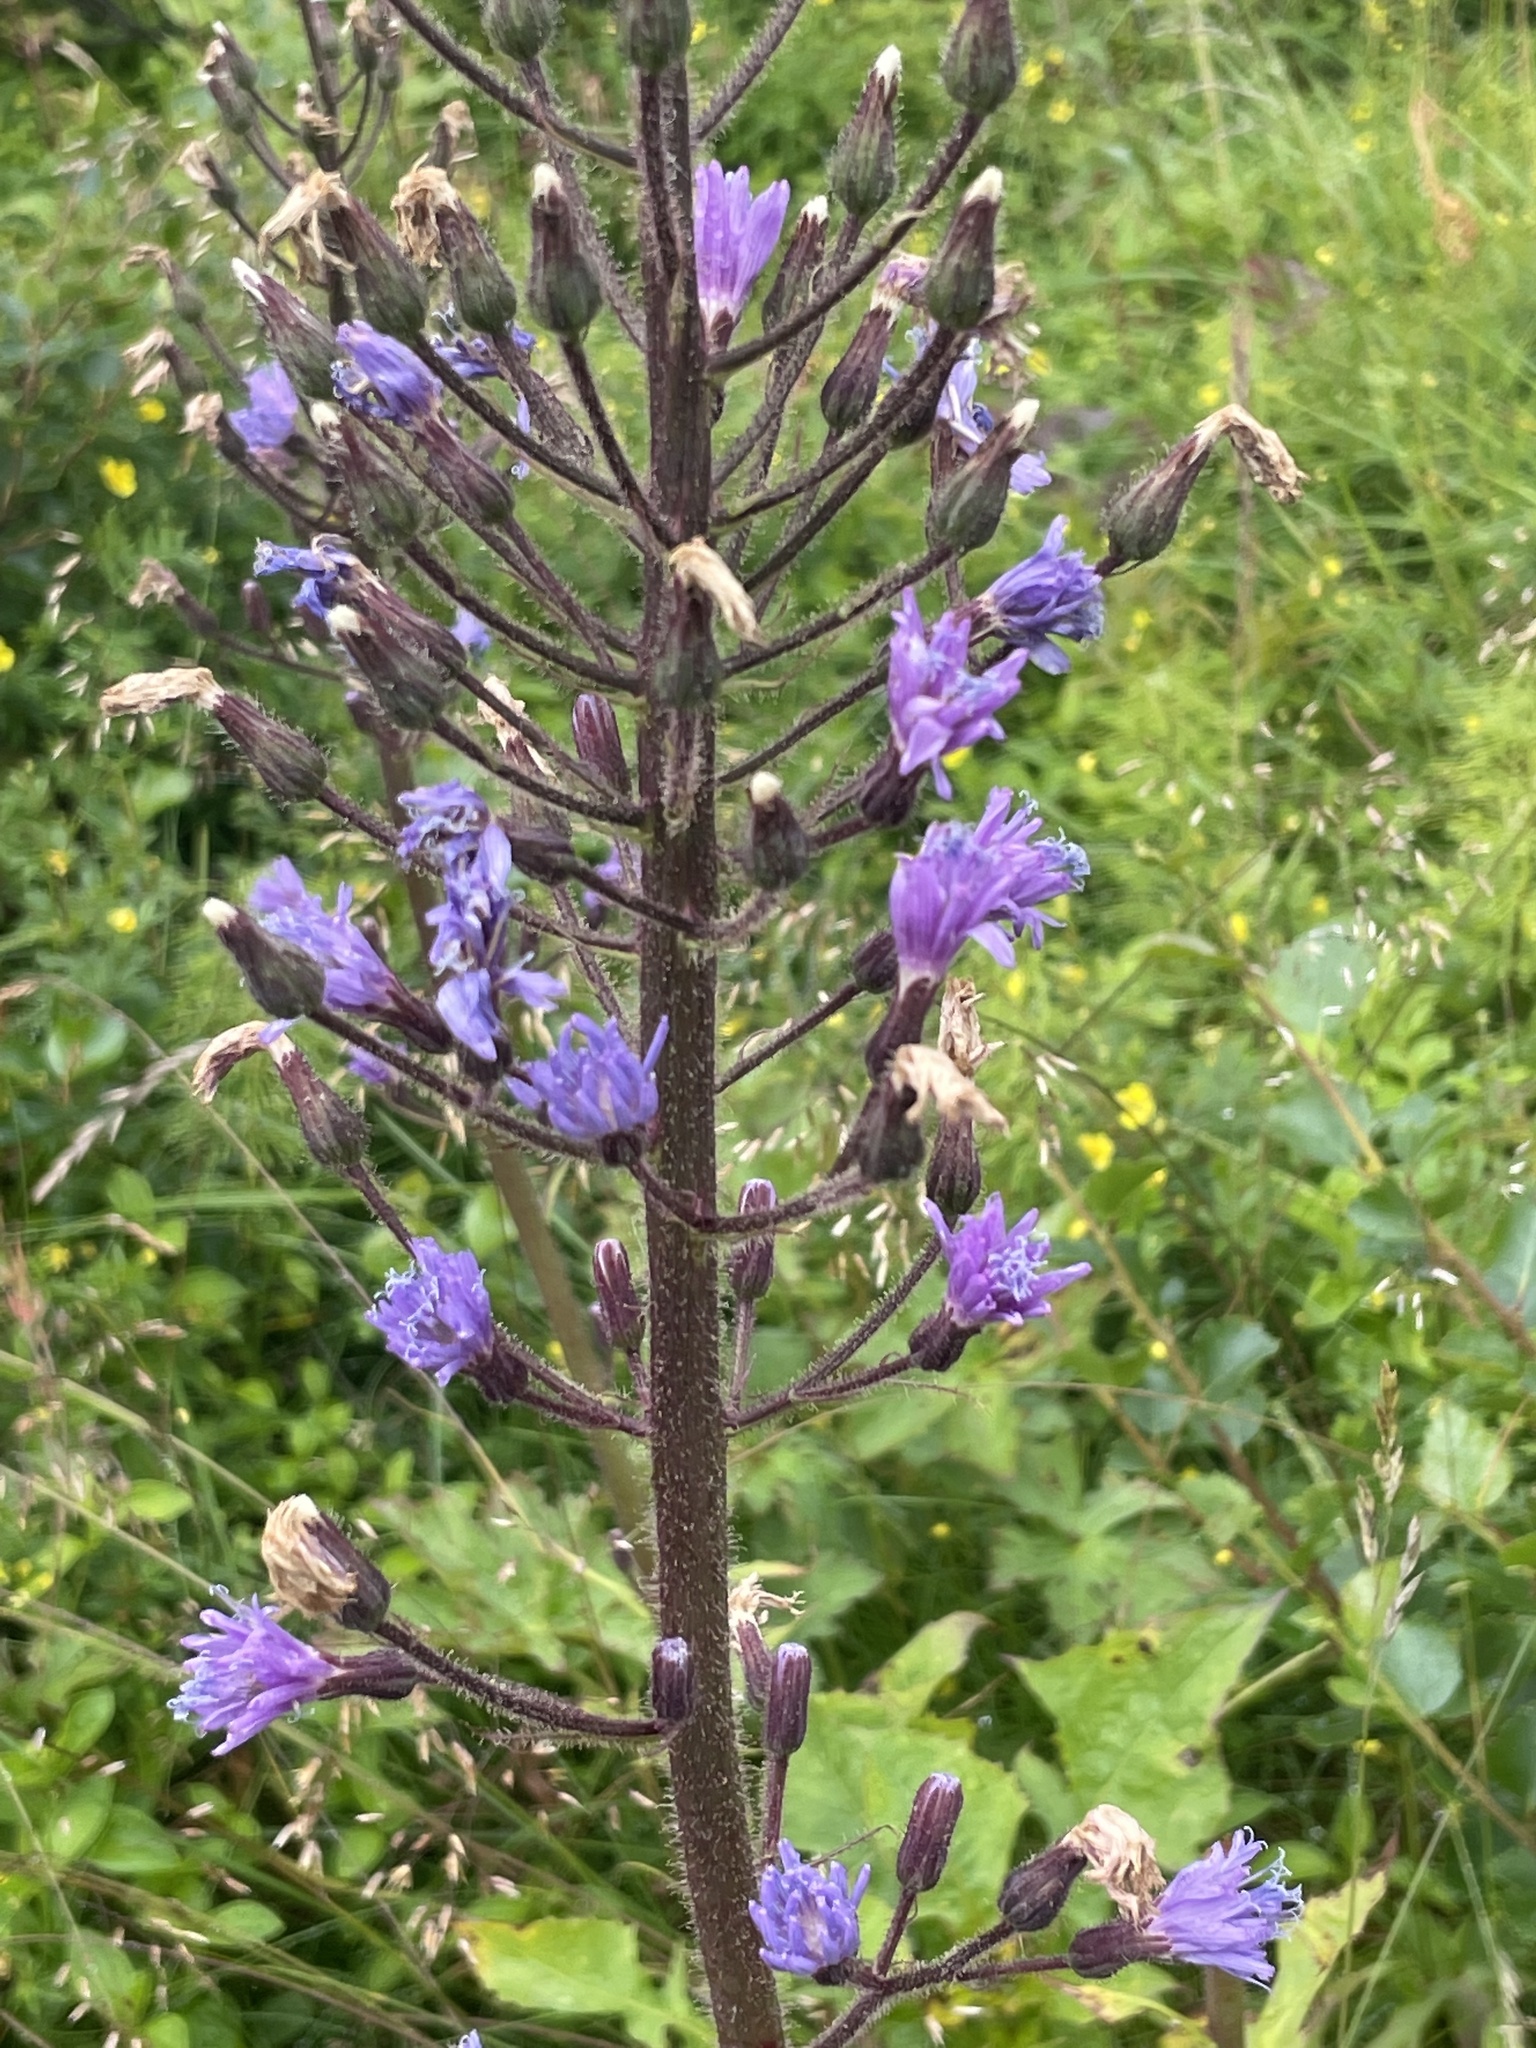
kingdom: Plantae
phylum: Tracheophyta
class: Magnoliopsida
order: Asterales
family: Asteraceae
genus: Cicerbita
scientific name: Cicerbita alpina
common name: Alpine blue-sow-thistle
